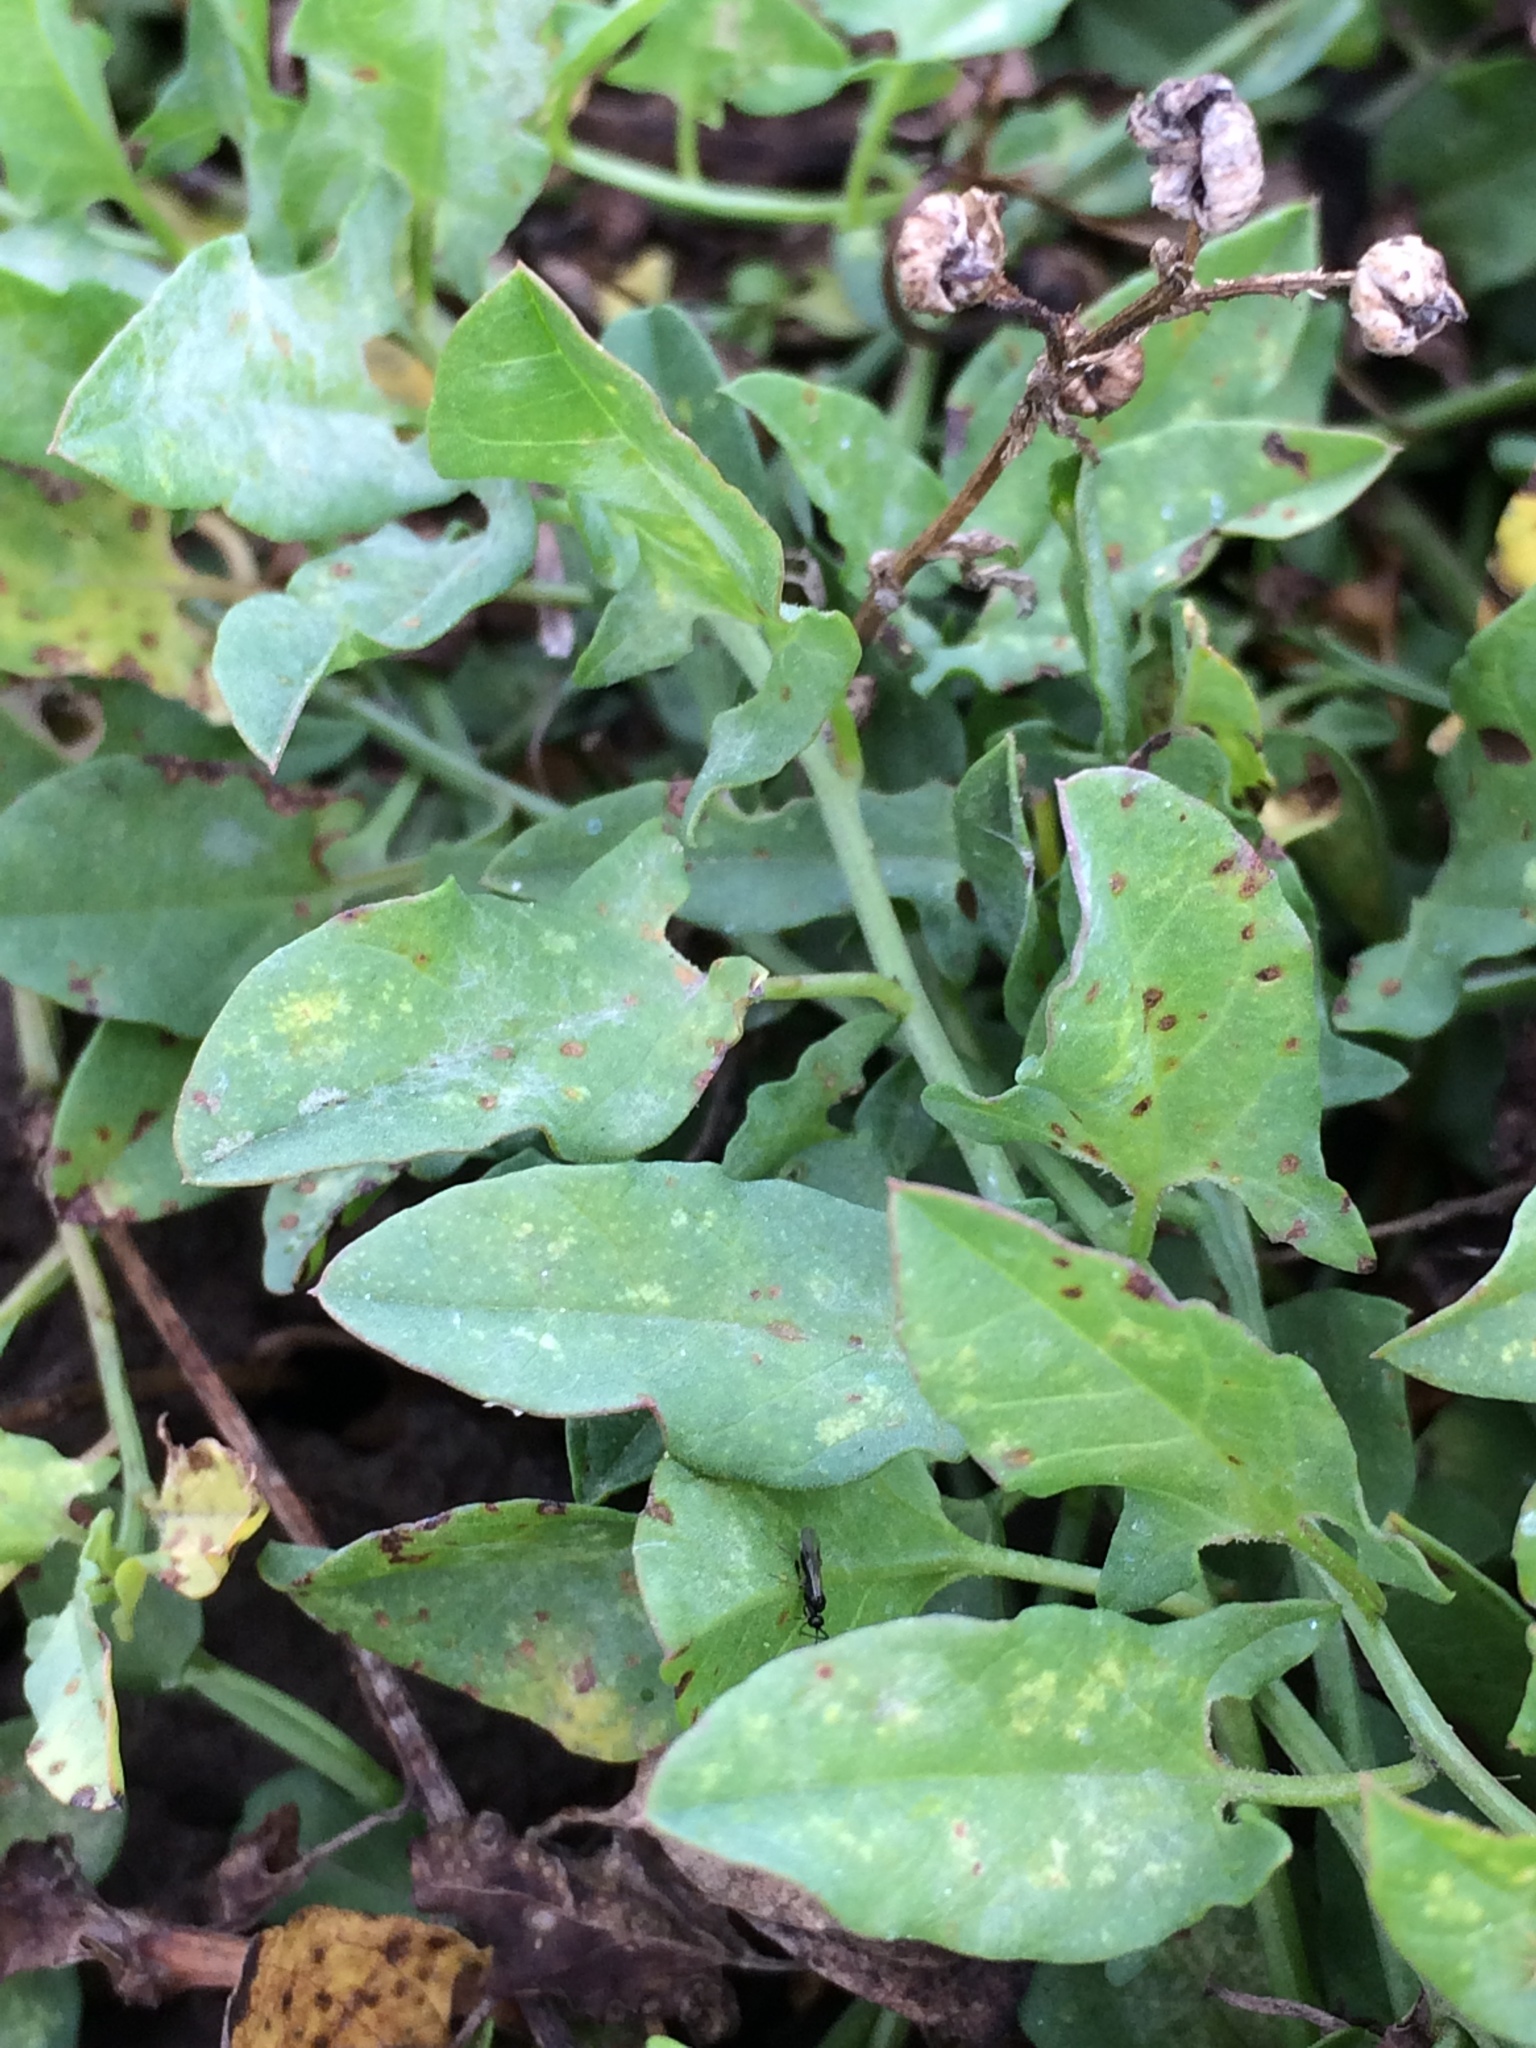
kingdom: Plantae
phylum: Tracheophyta
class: Magnoliopsida
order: Solanales
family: Convolvulaceae
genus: Convolvulus
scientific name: Convolvulus arvensis
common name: Field bindweed
